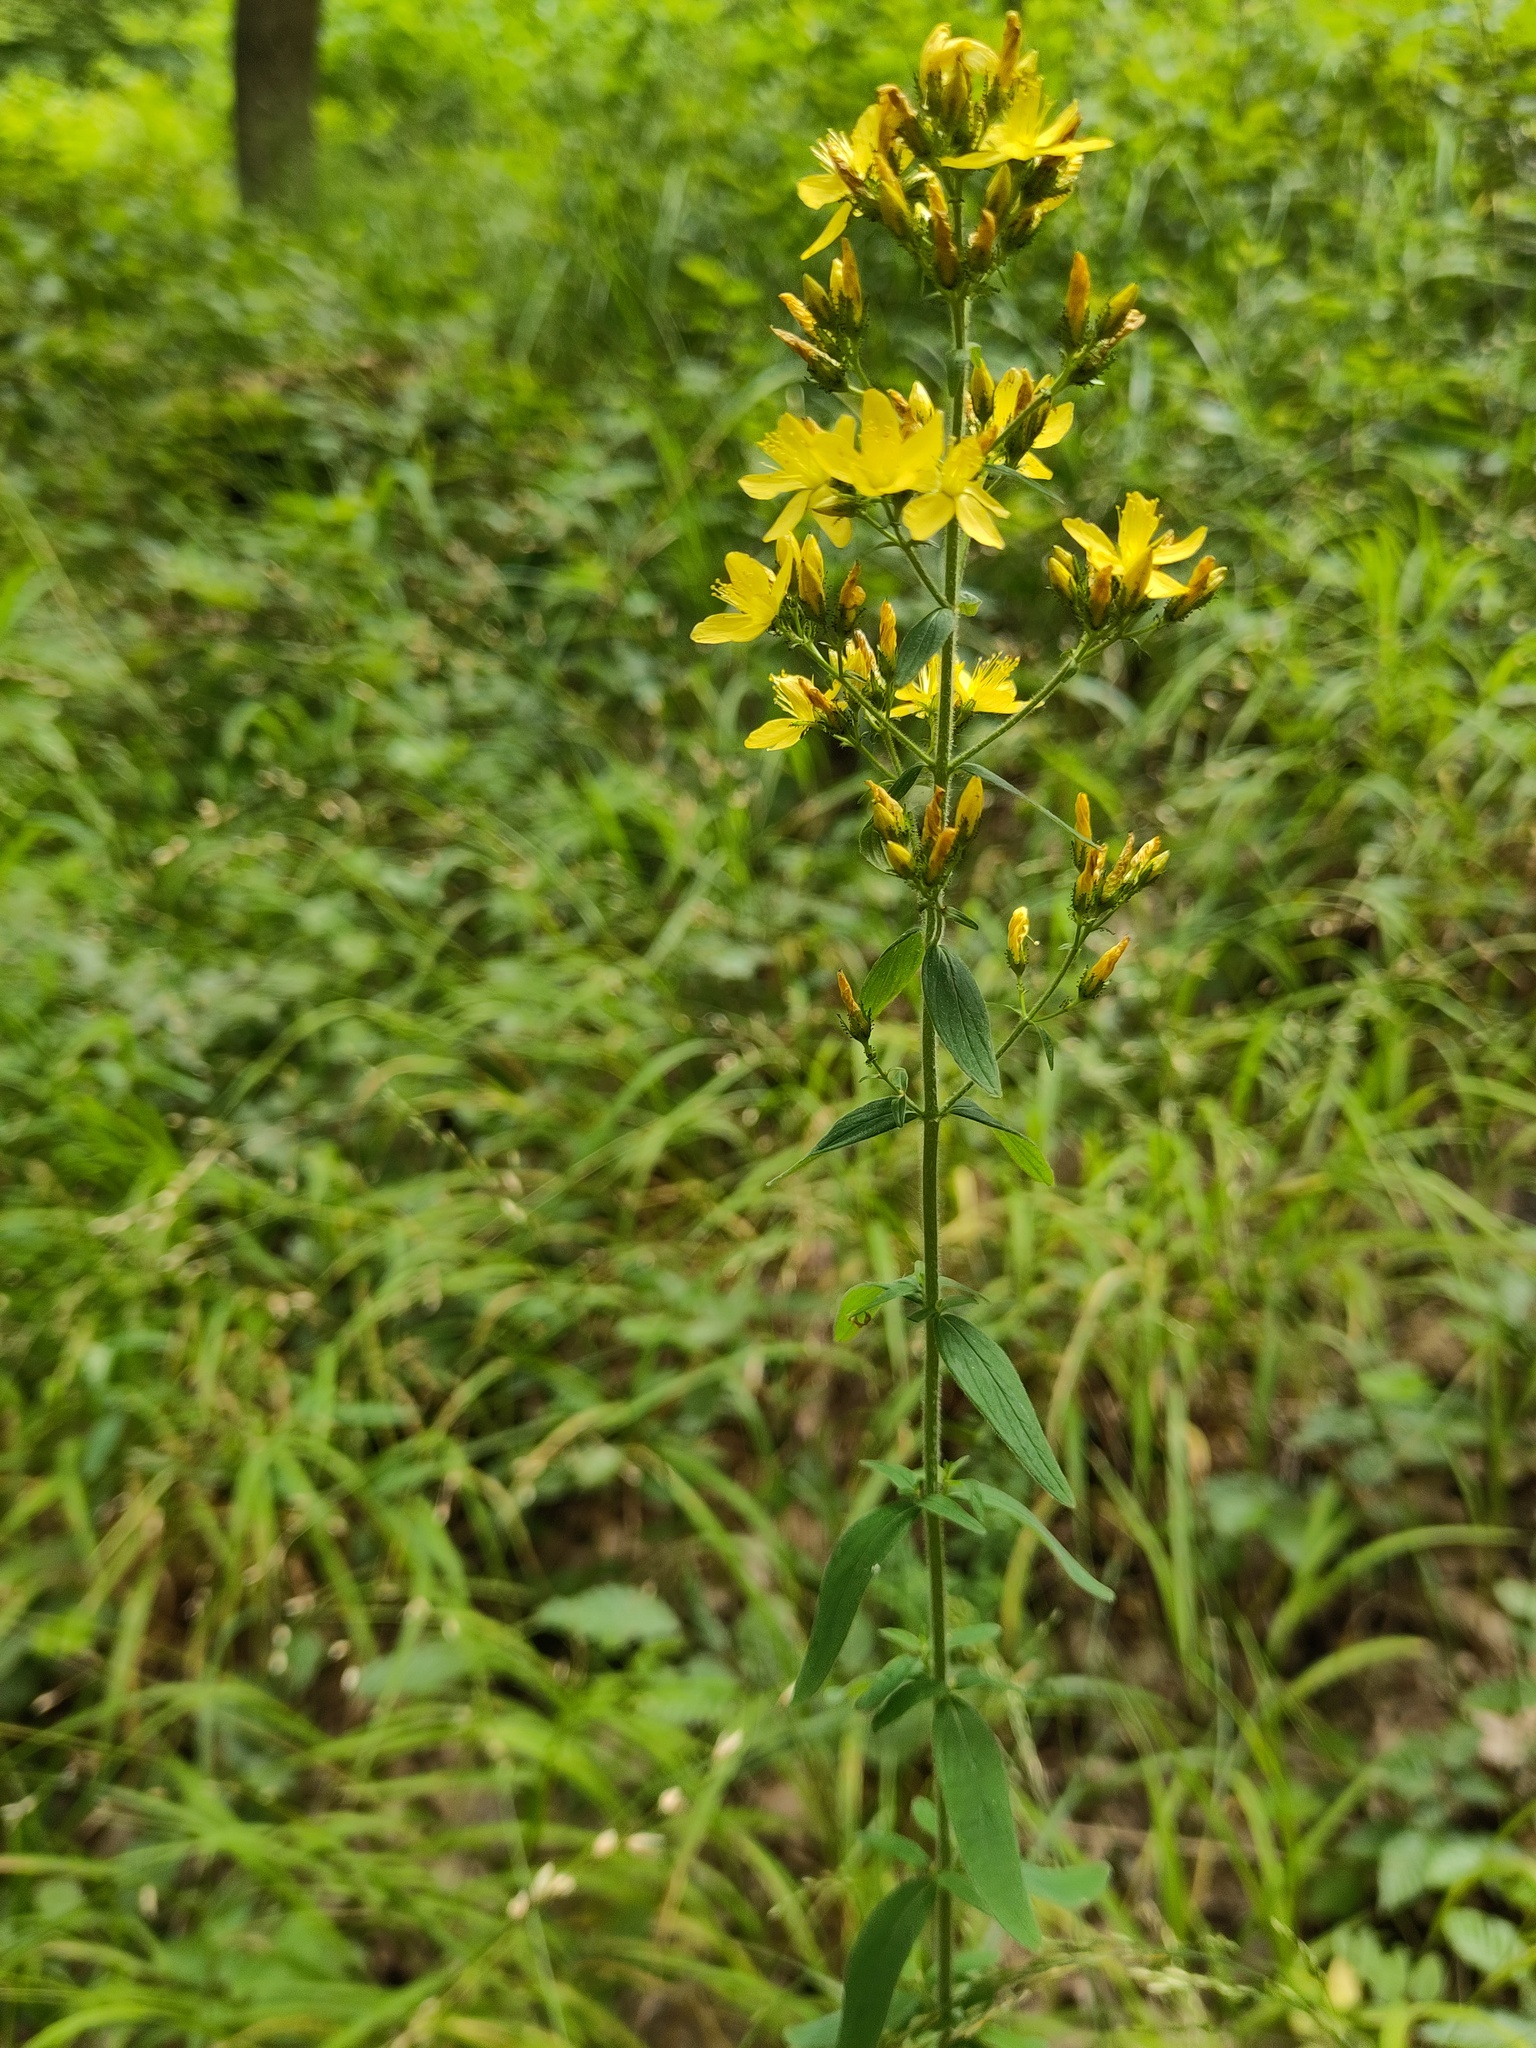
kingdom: Plantae
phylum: Tracheophyta
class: Magnoliopsida
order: Malpighiales
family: Hypericaceae
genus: Hypericum
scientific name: Hypericum hirsutum
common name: Hairy st. john's-wort
